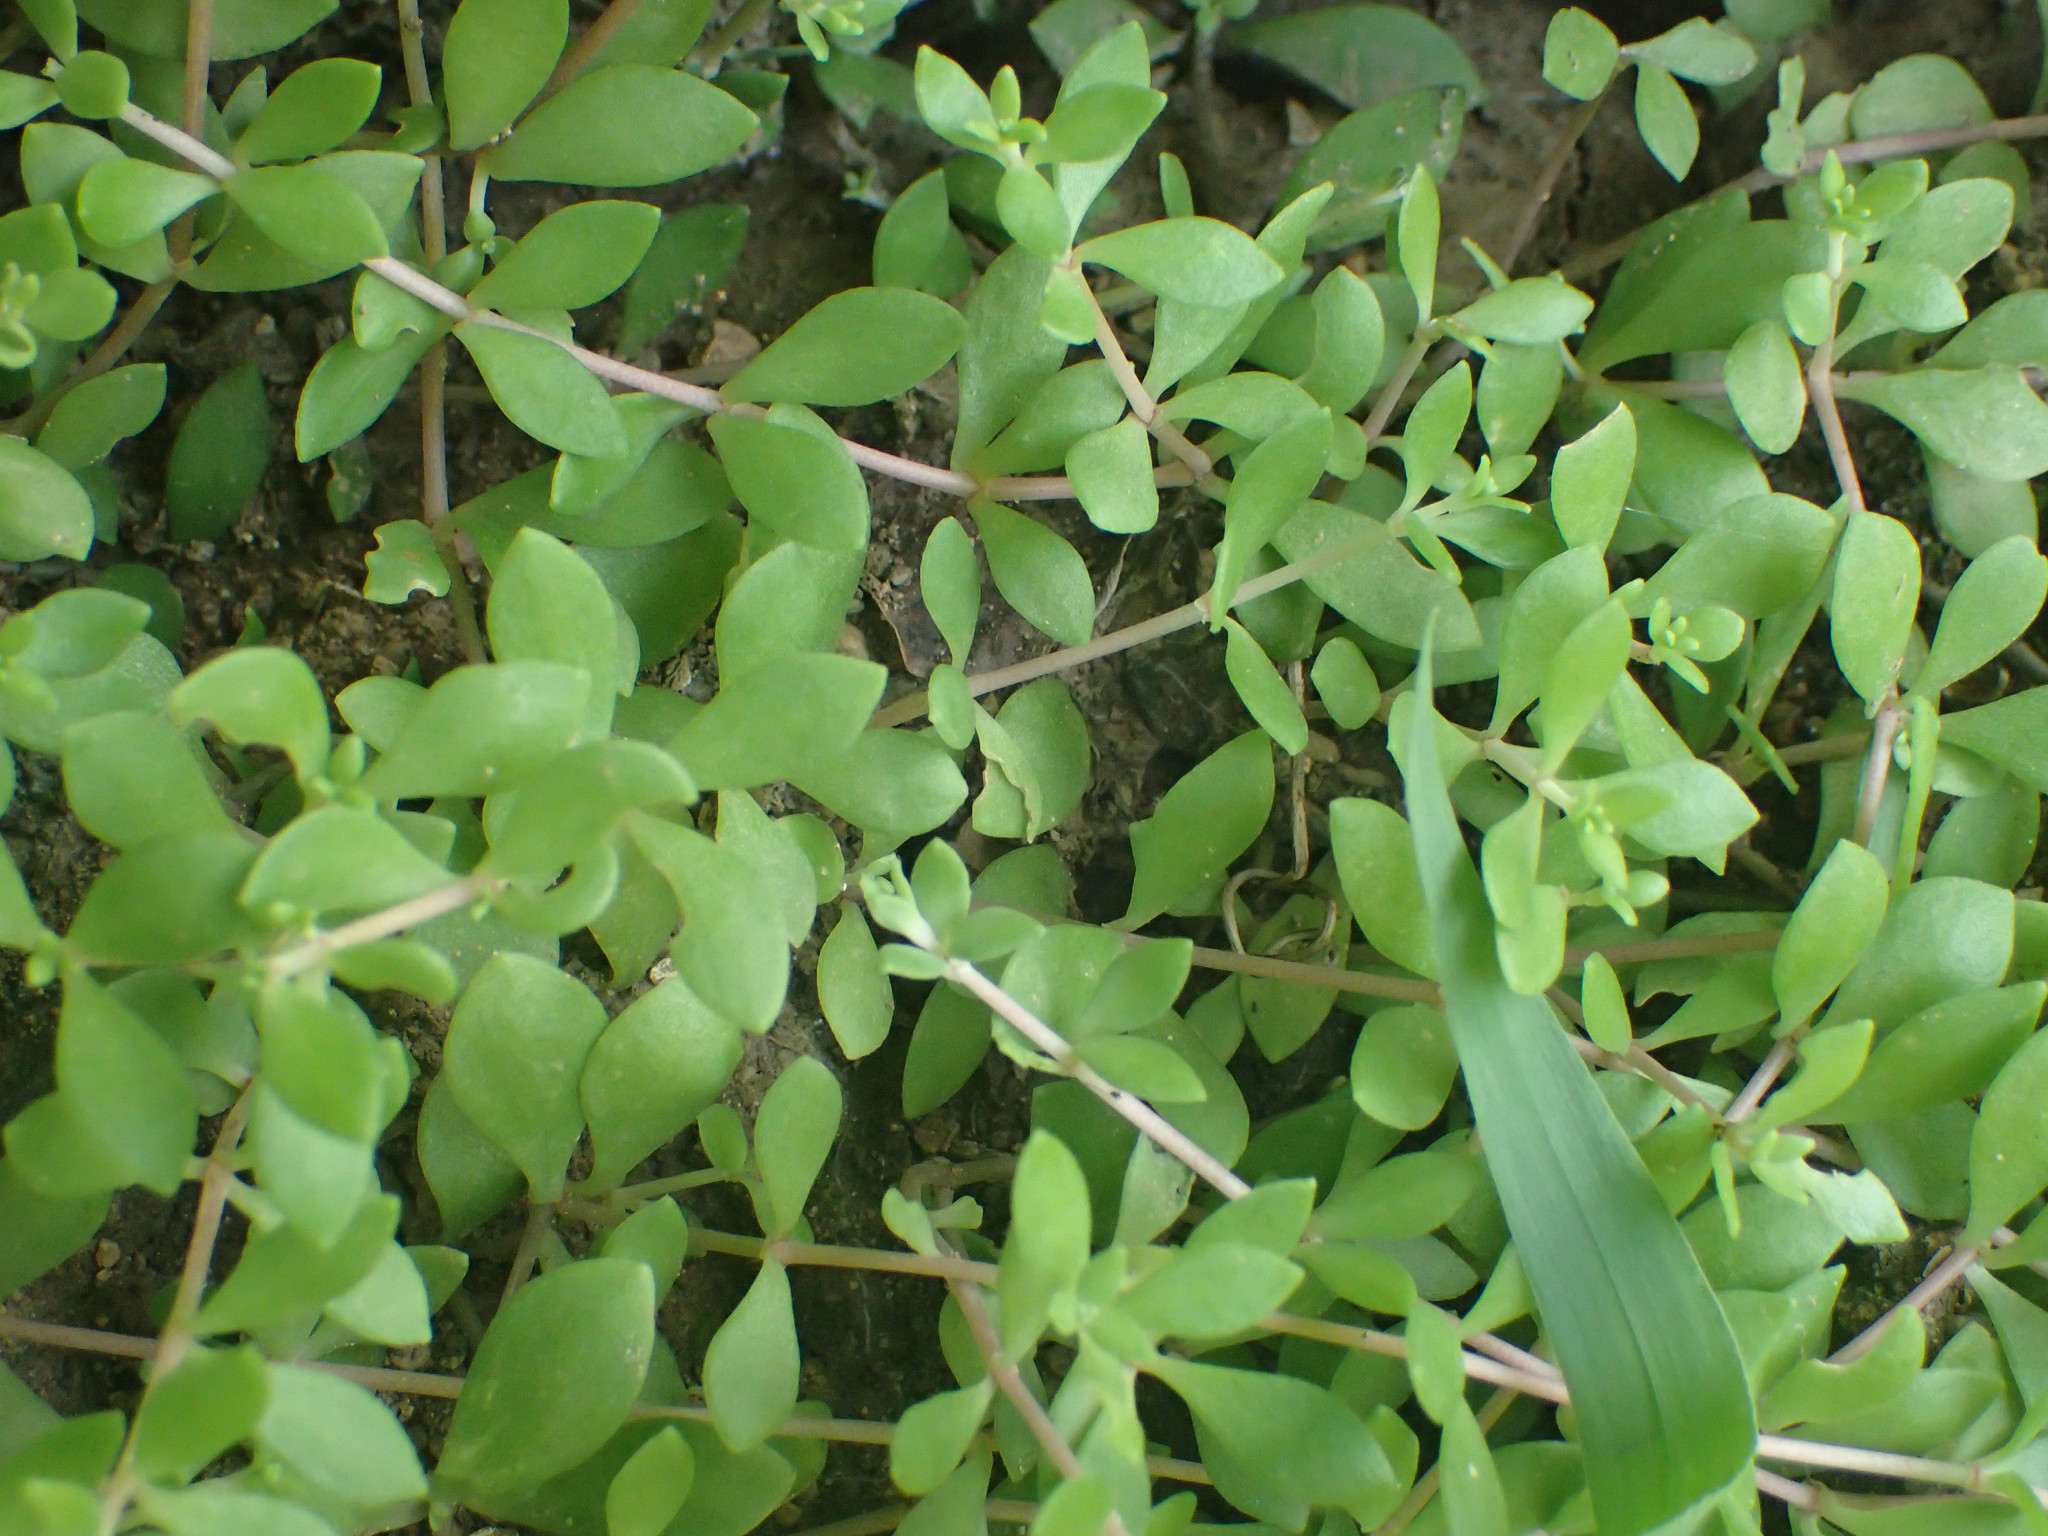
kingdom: Plantae
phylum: Tracheophyta
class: Magnoliopsida
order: Saxifragales
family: Crassulaceae
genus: Sedum
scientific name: Sedum sarmentosum
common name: Stringy stonecrop
